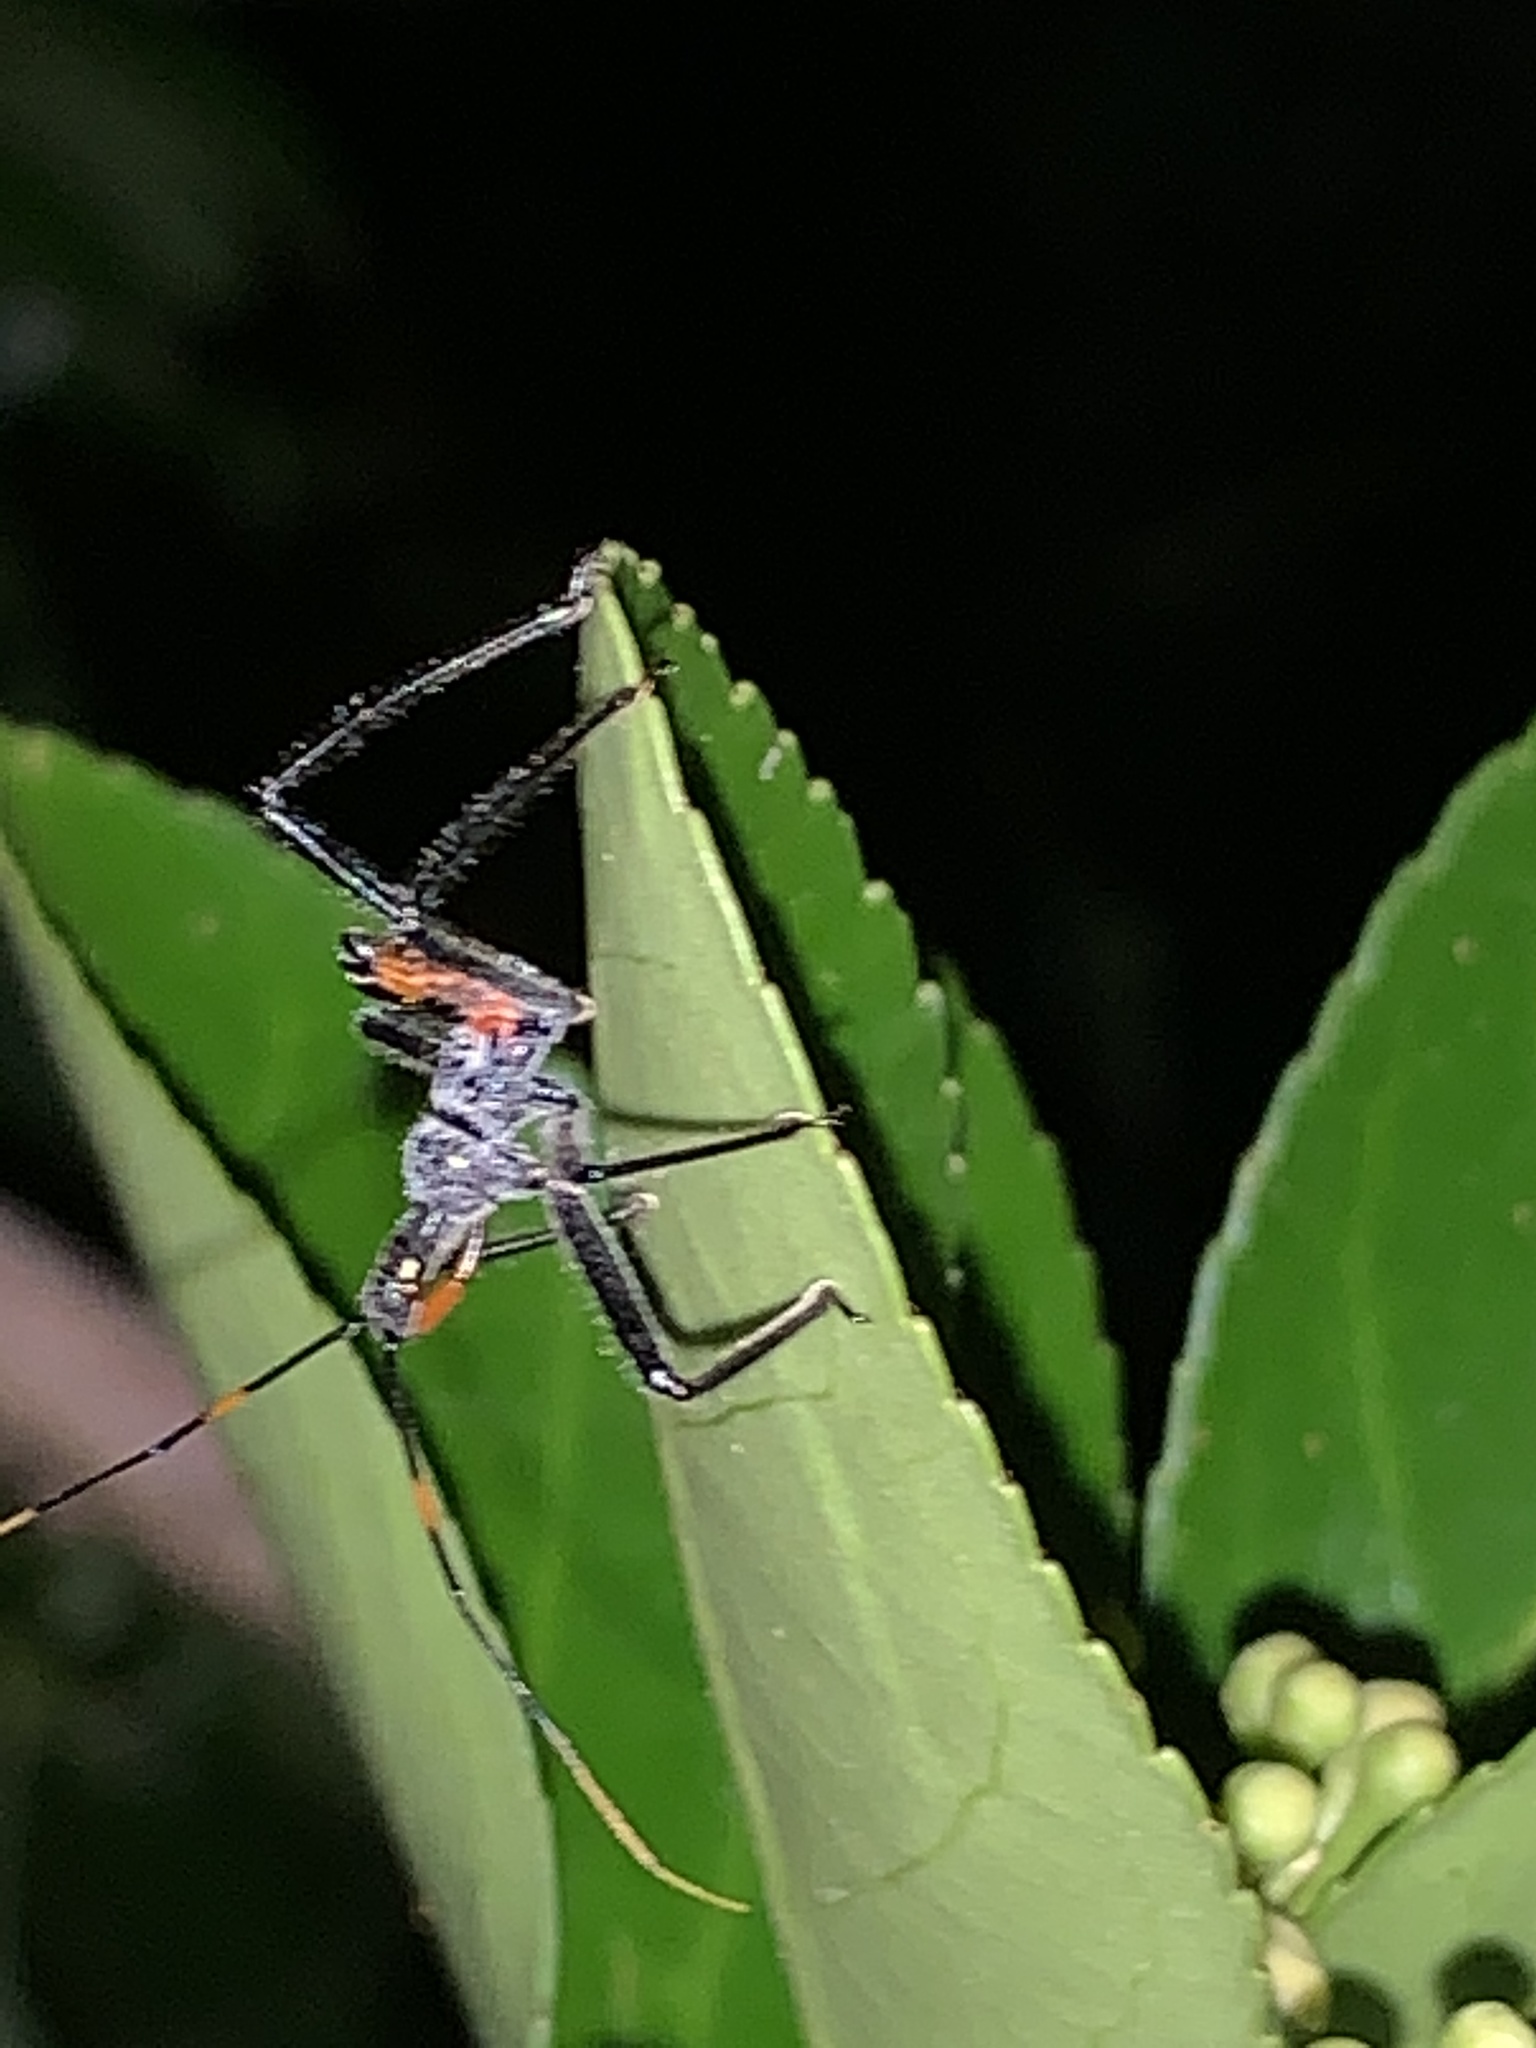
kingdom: Animalia
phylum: Arthropoda
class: Insecta
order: Hemiptera
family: Reduviidae
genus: Arilus
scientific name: Arilus cristatus
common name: North american wheel bug
